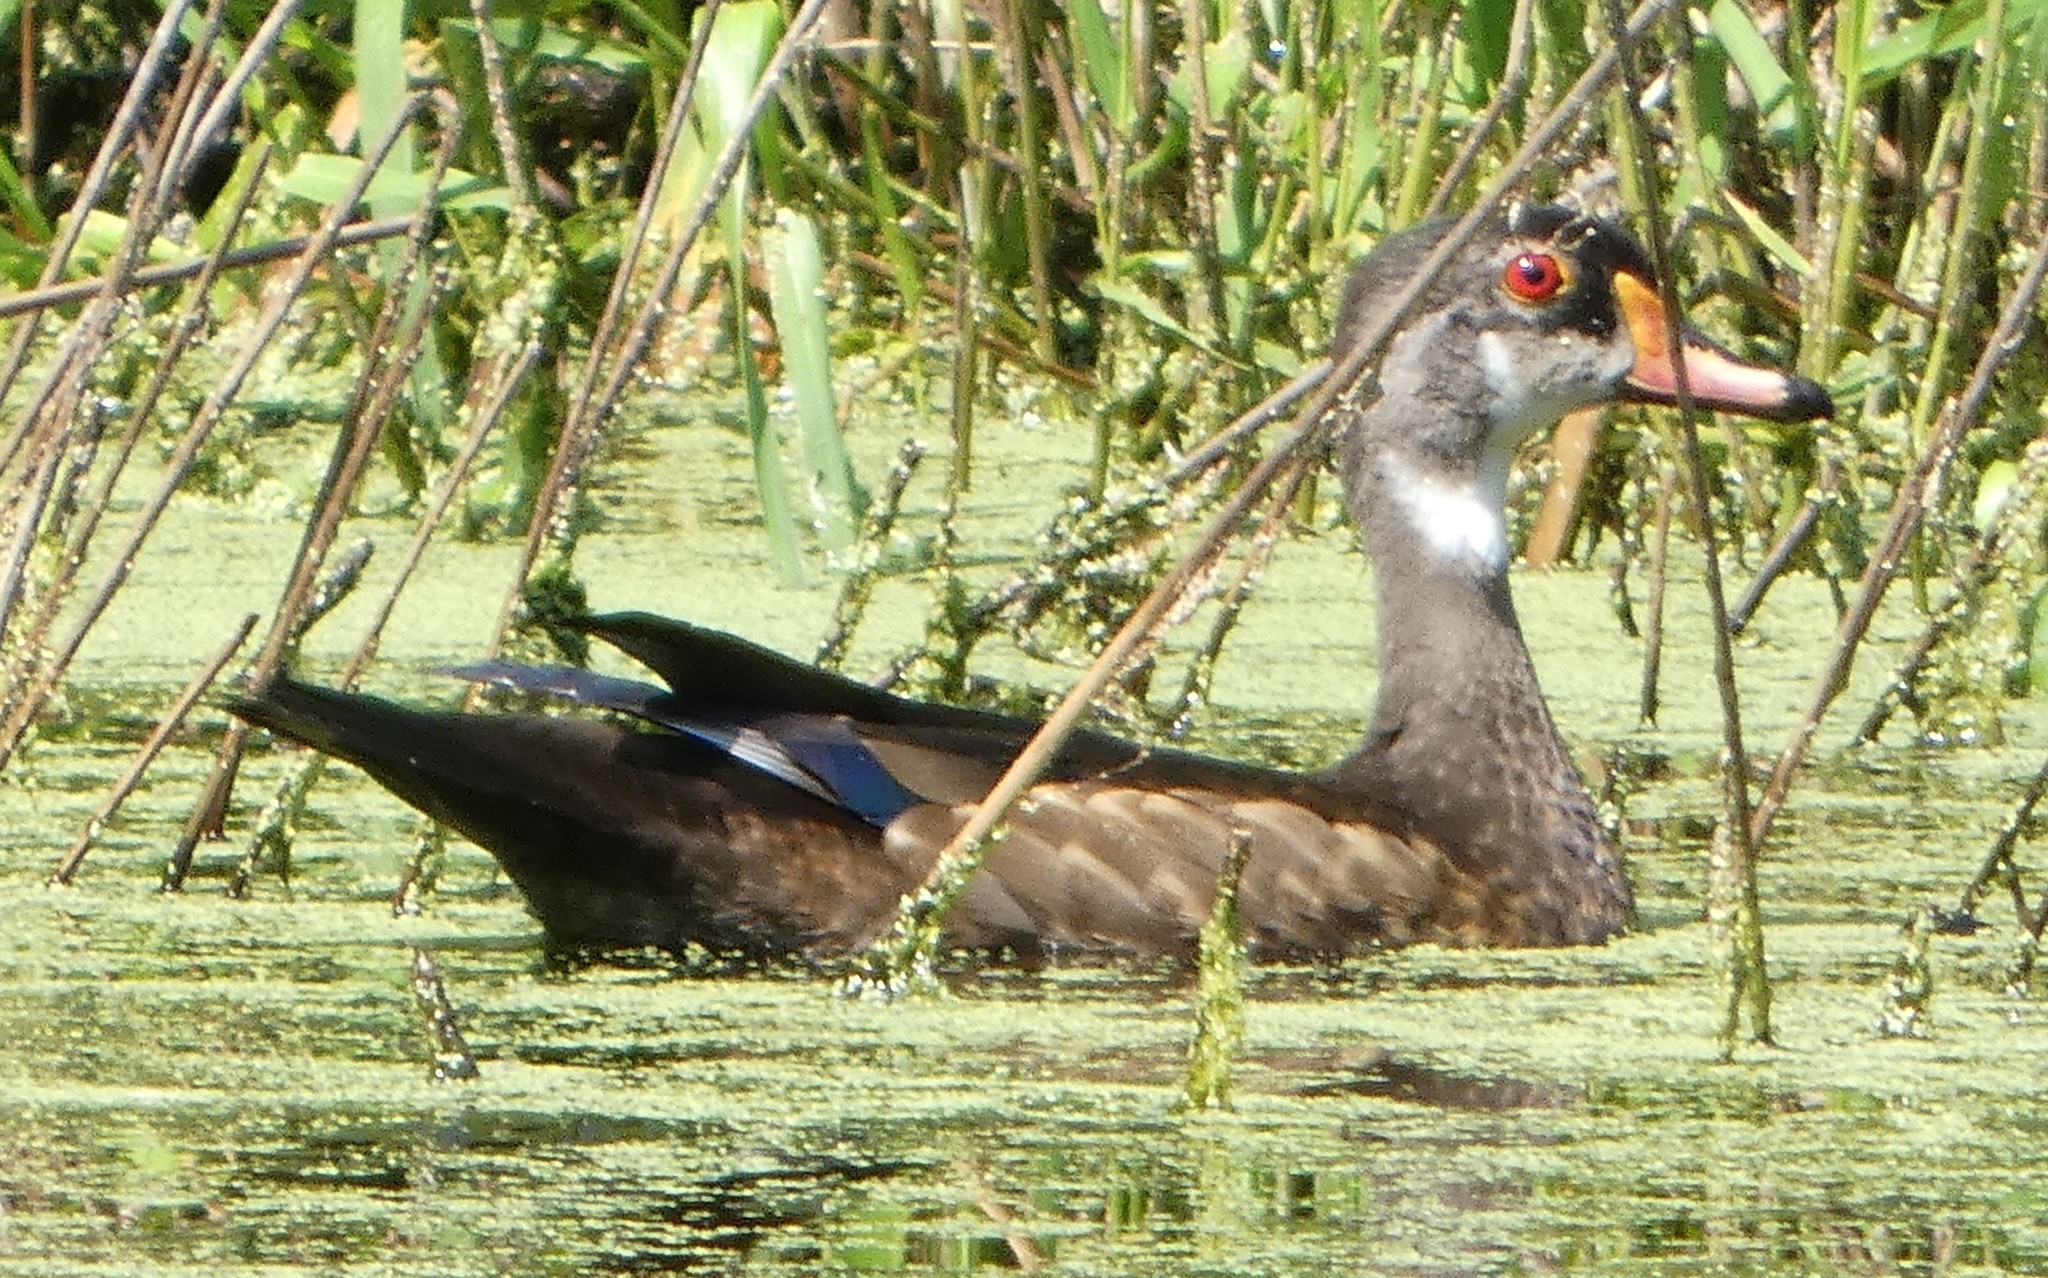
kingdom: Animalia
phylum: Chordata
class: Aves
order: Anseriformes
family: Anatidae
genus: Aix
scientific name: Aix sponsa
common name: Wood duck
